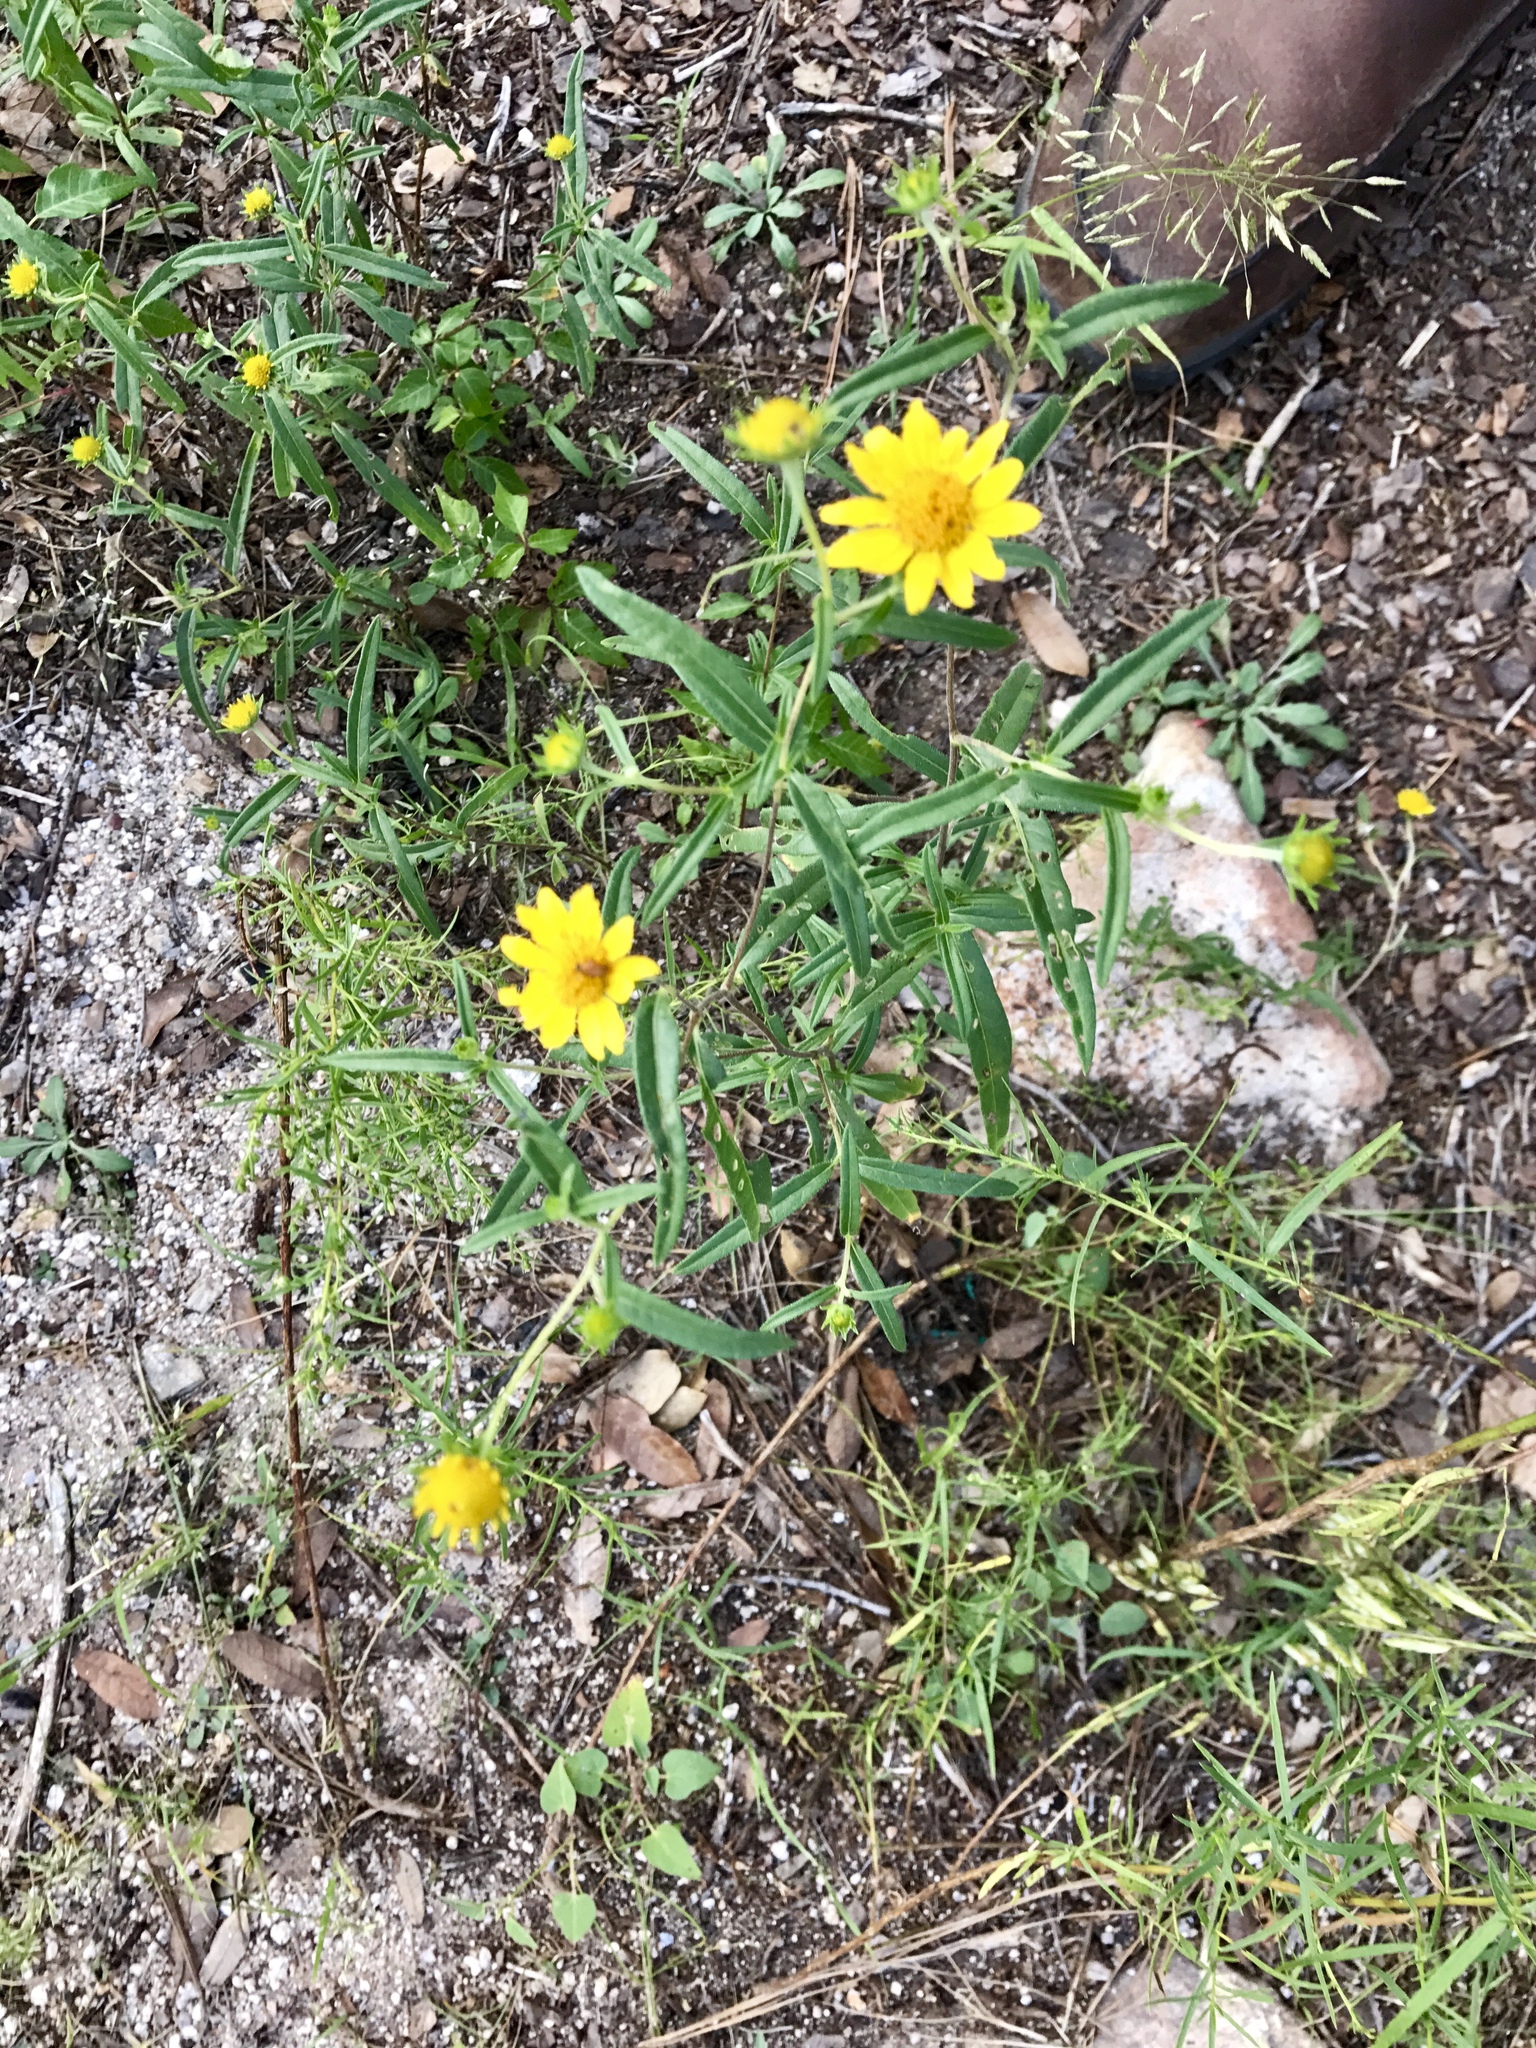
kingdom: Plantae
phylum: Tracheophyta
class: Magnoliopsida
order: Asterales
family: Asteraceae
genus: Heliomeris
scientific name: Heliomeris multiflora
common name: Showy goldeneye
